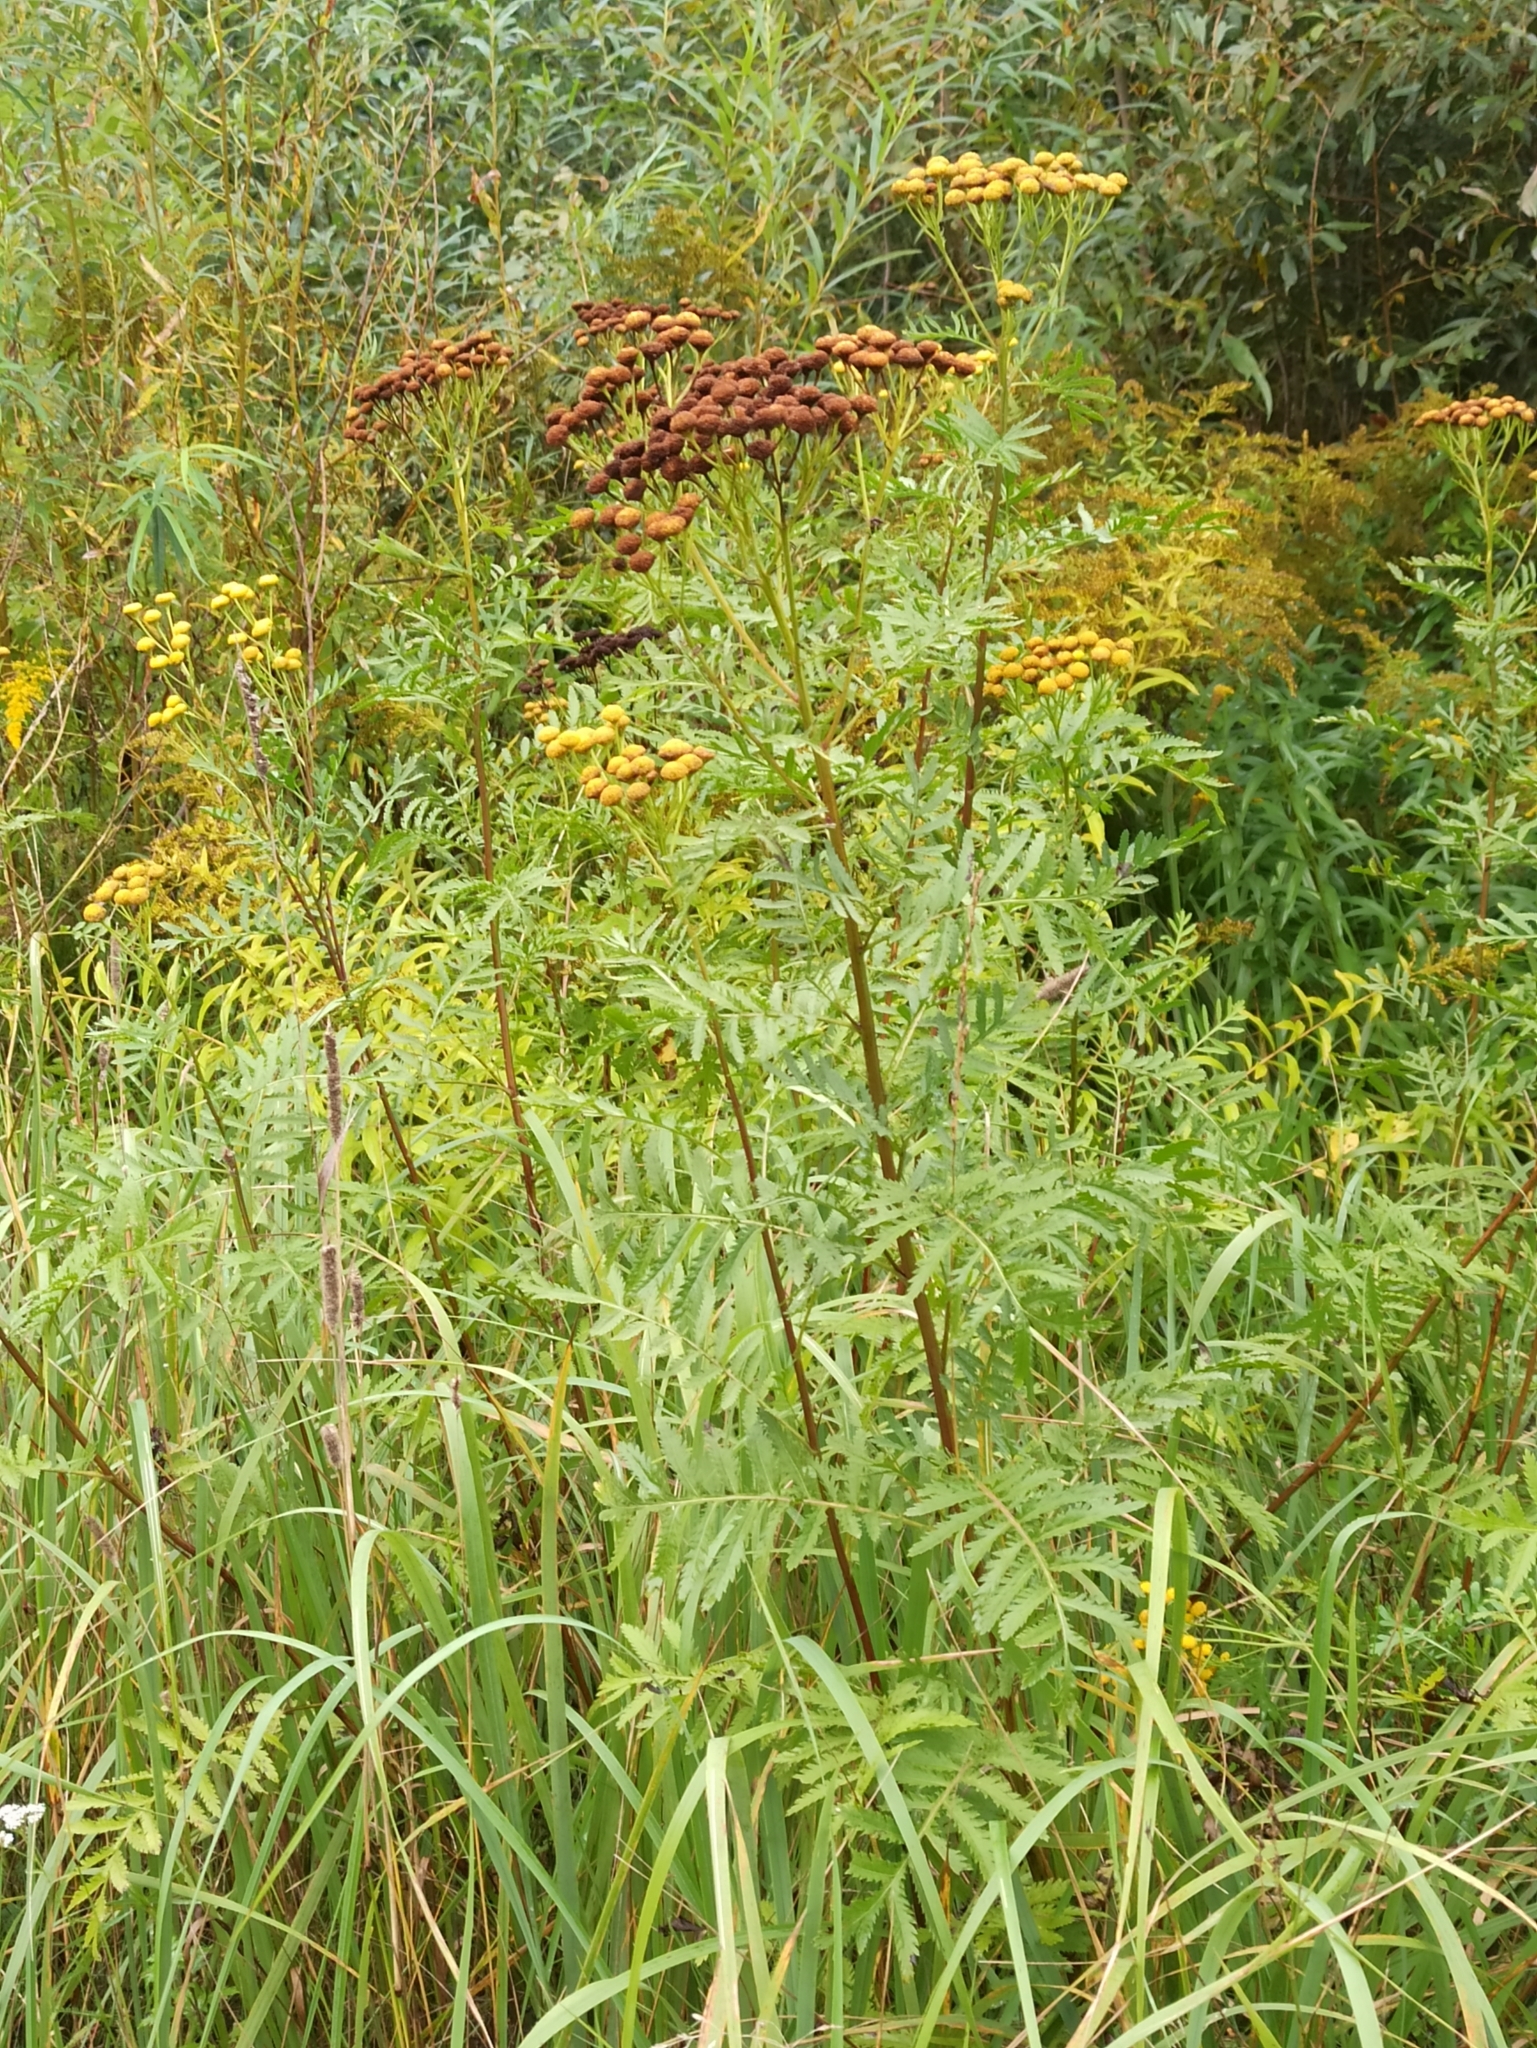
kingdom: Plantae
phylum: Tracheophyta
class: Magnoliopsida
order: Asterales
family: Asteraceae
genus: Tanacetum
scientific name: Tanacetum vulgare
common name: Common tansy
